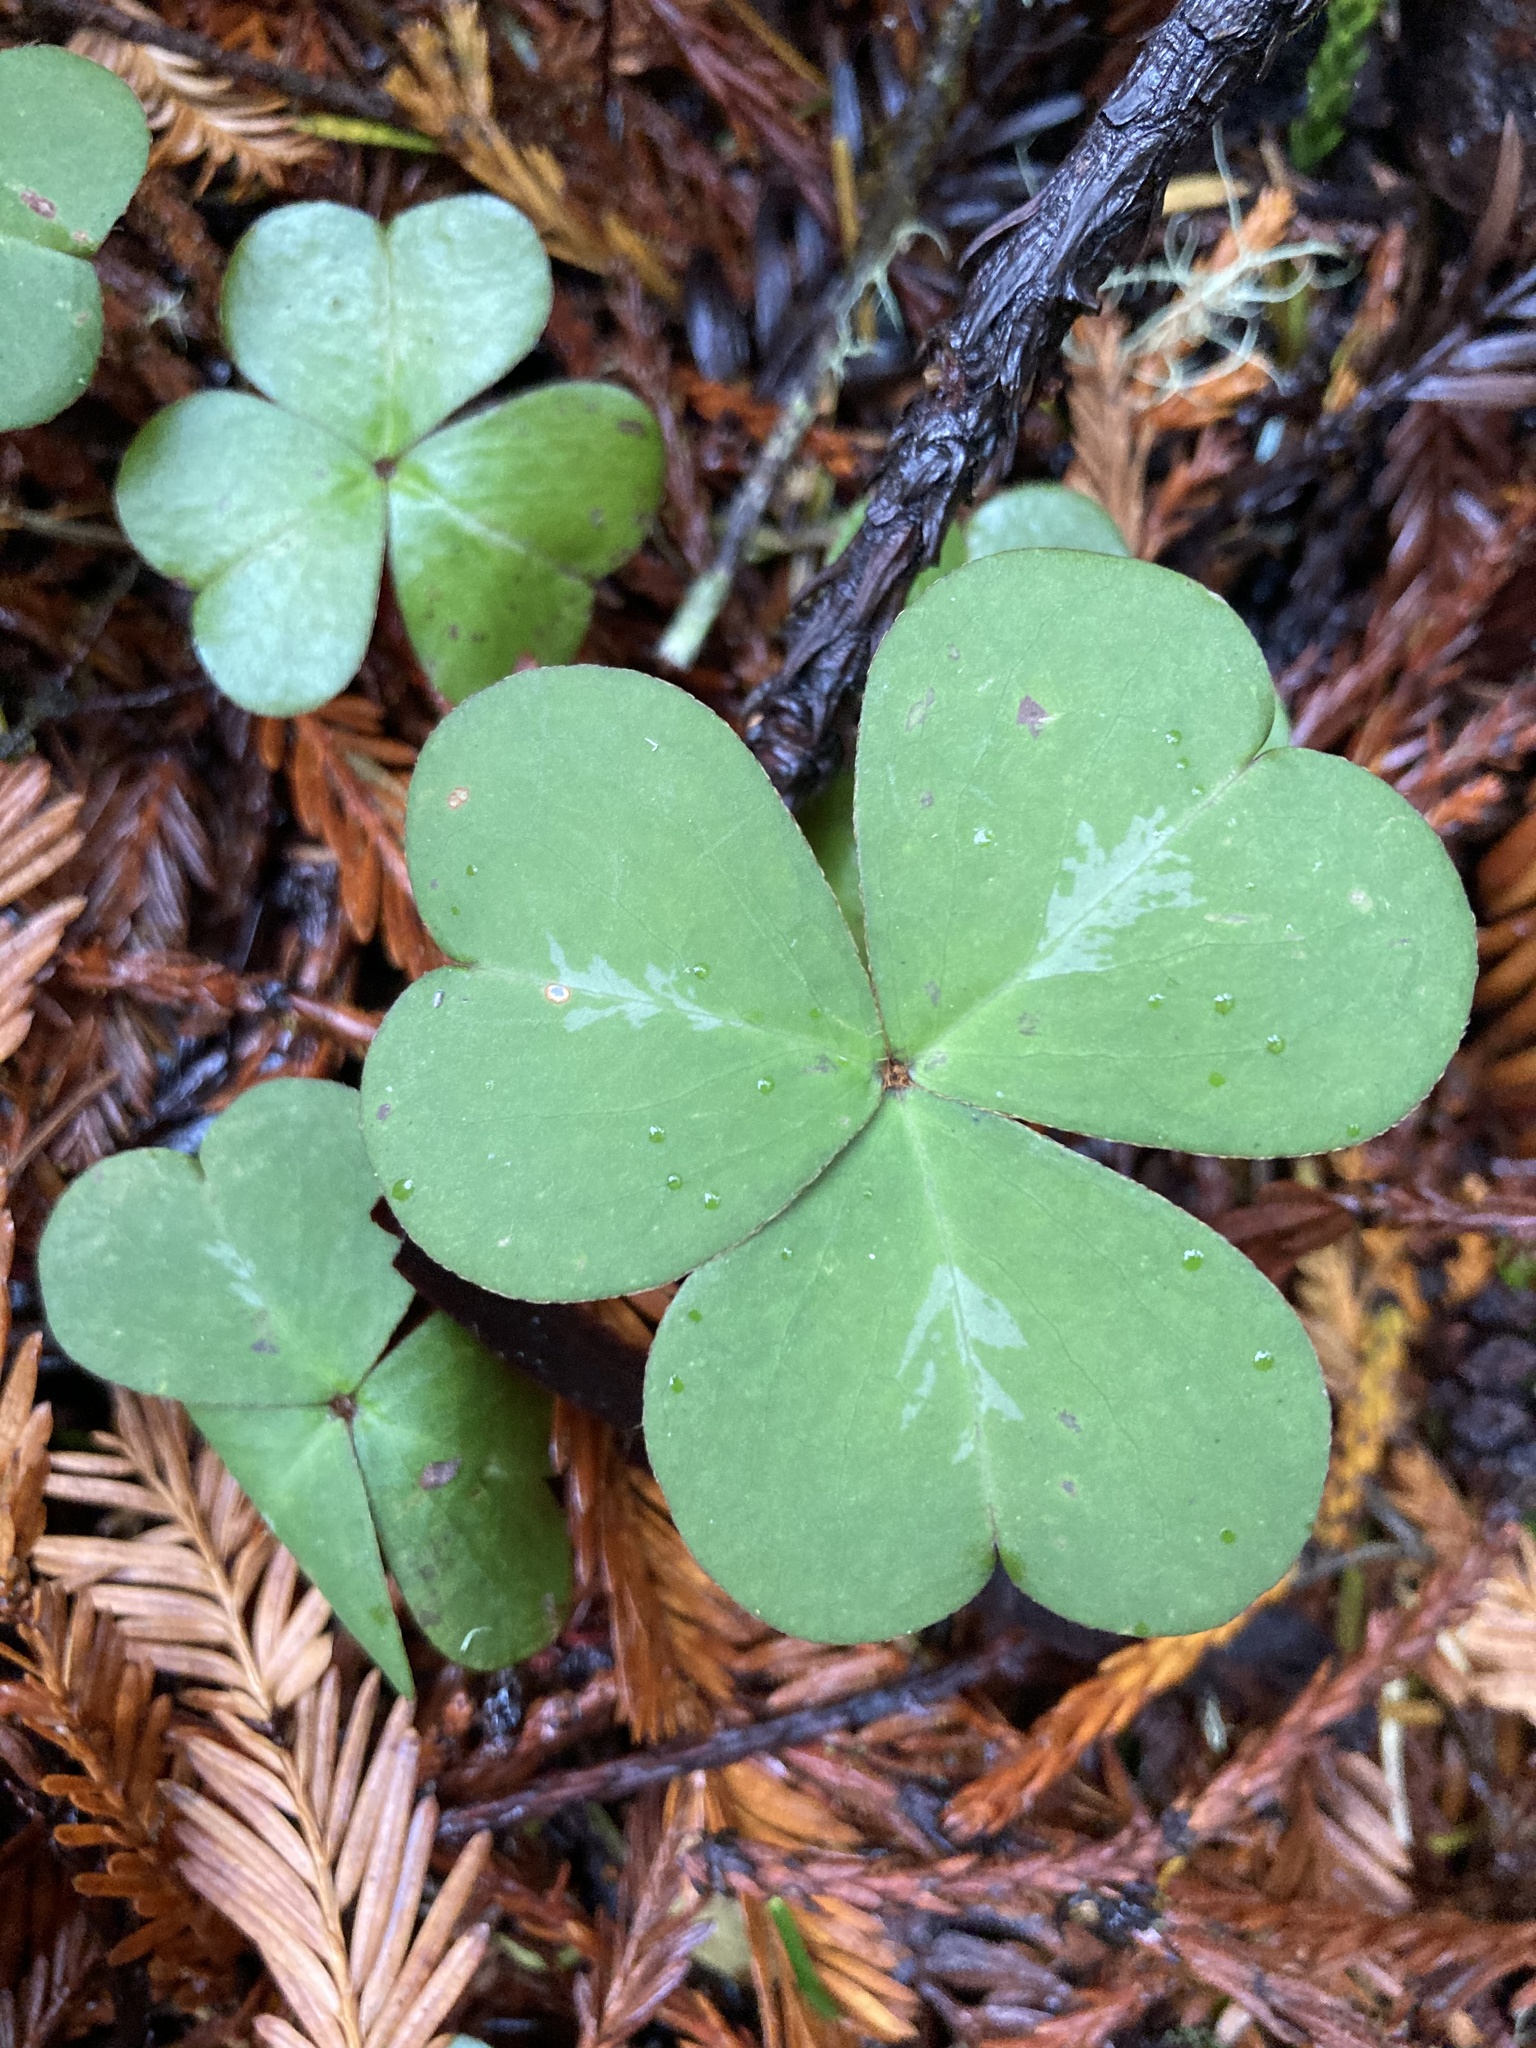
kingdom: Plantae
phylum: Tracheophyta
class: Magnoliopsida
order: Oxalidales
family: Oxalidaceae
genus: Oxalis
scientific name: Oxalis oregana
